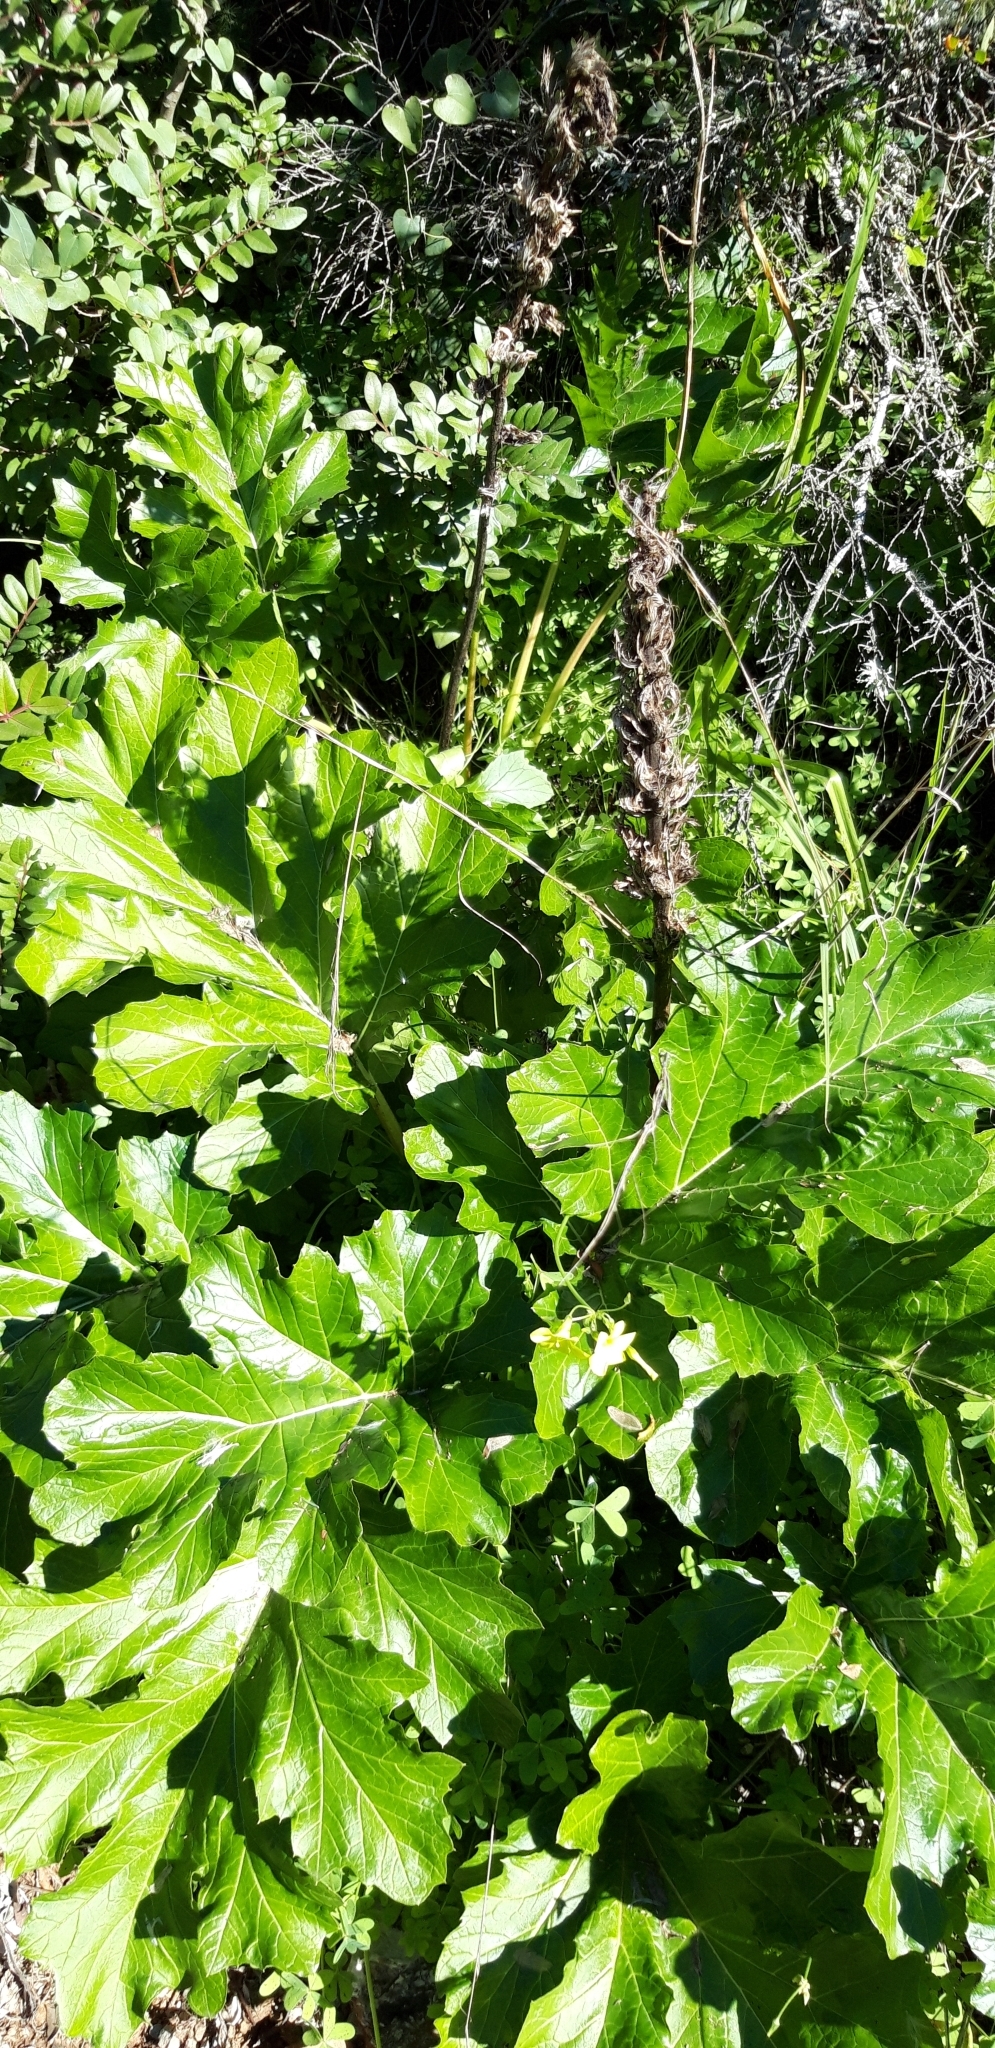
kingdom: Plantae
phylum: Tracheophyta
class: Magnoliopsida
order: Lamiales
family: Acanthaceae
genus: Acanthus
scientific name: Acanthus mollis
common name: Bear's-breech
